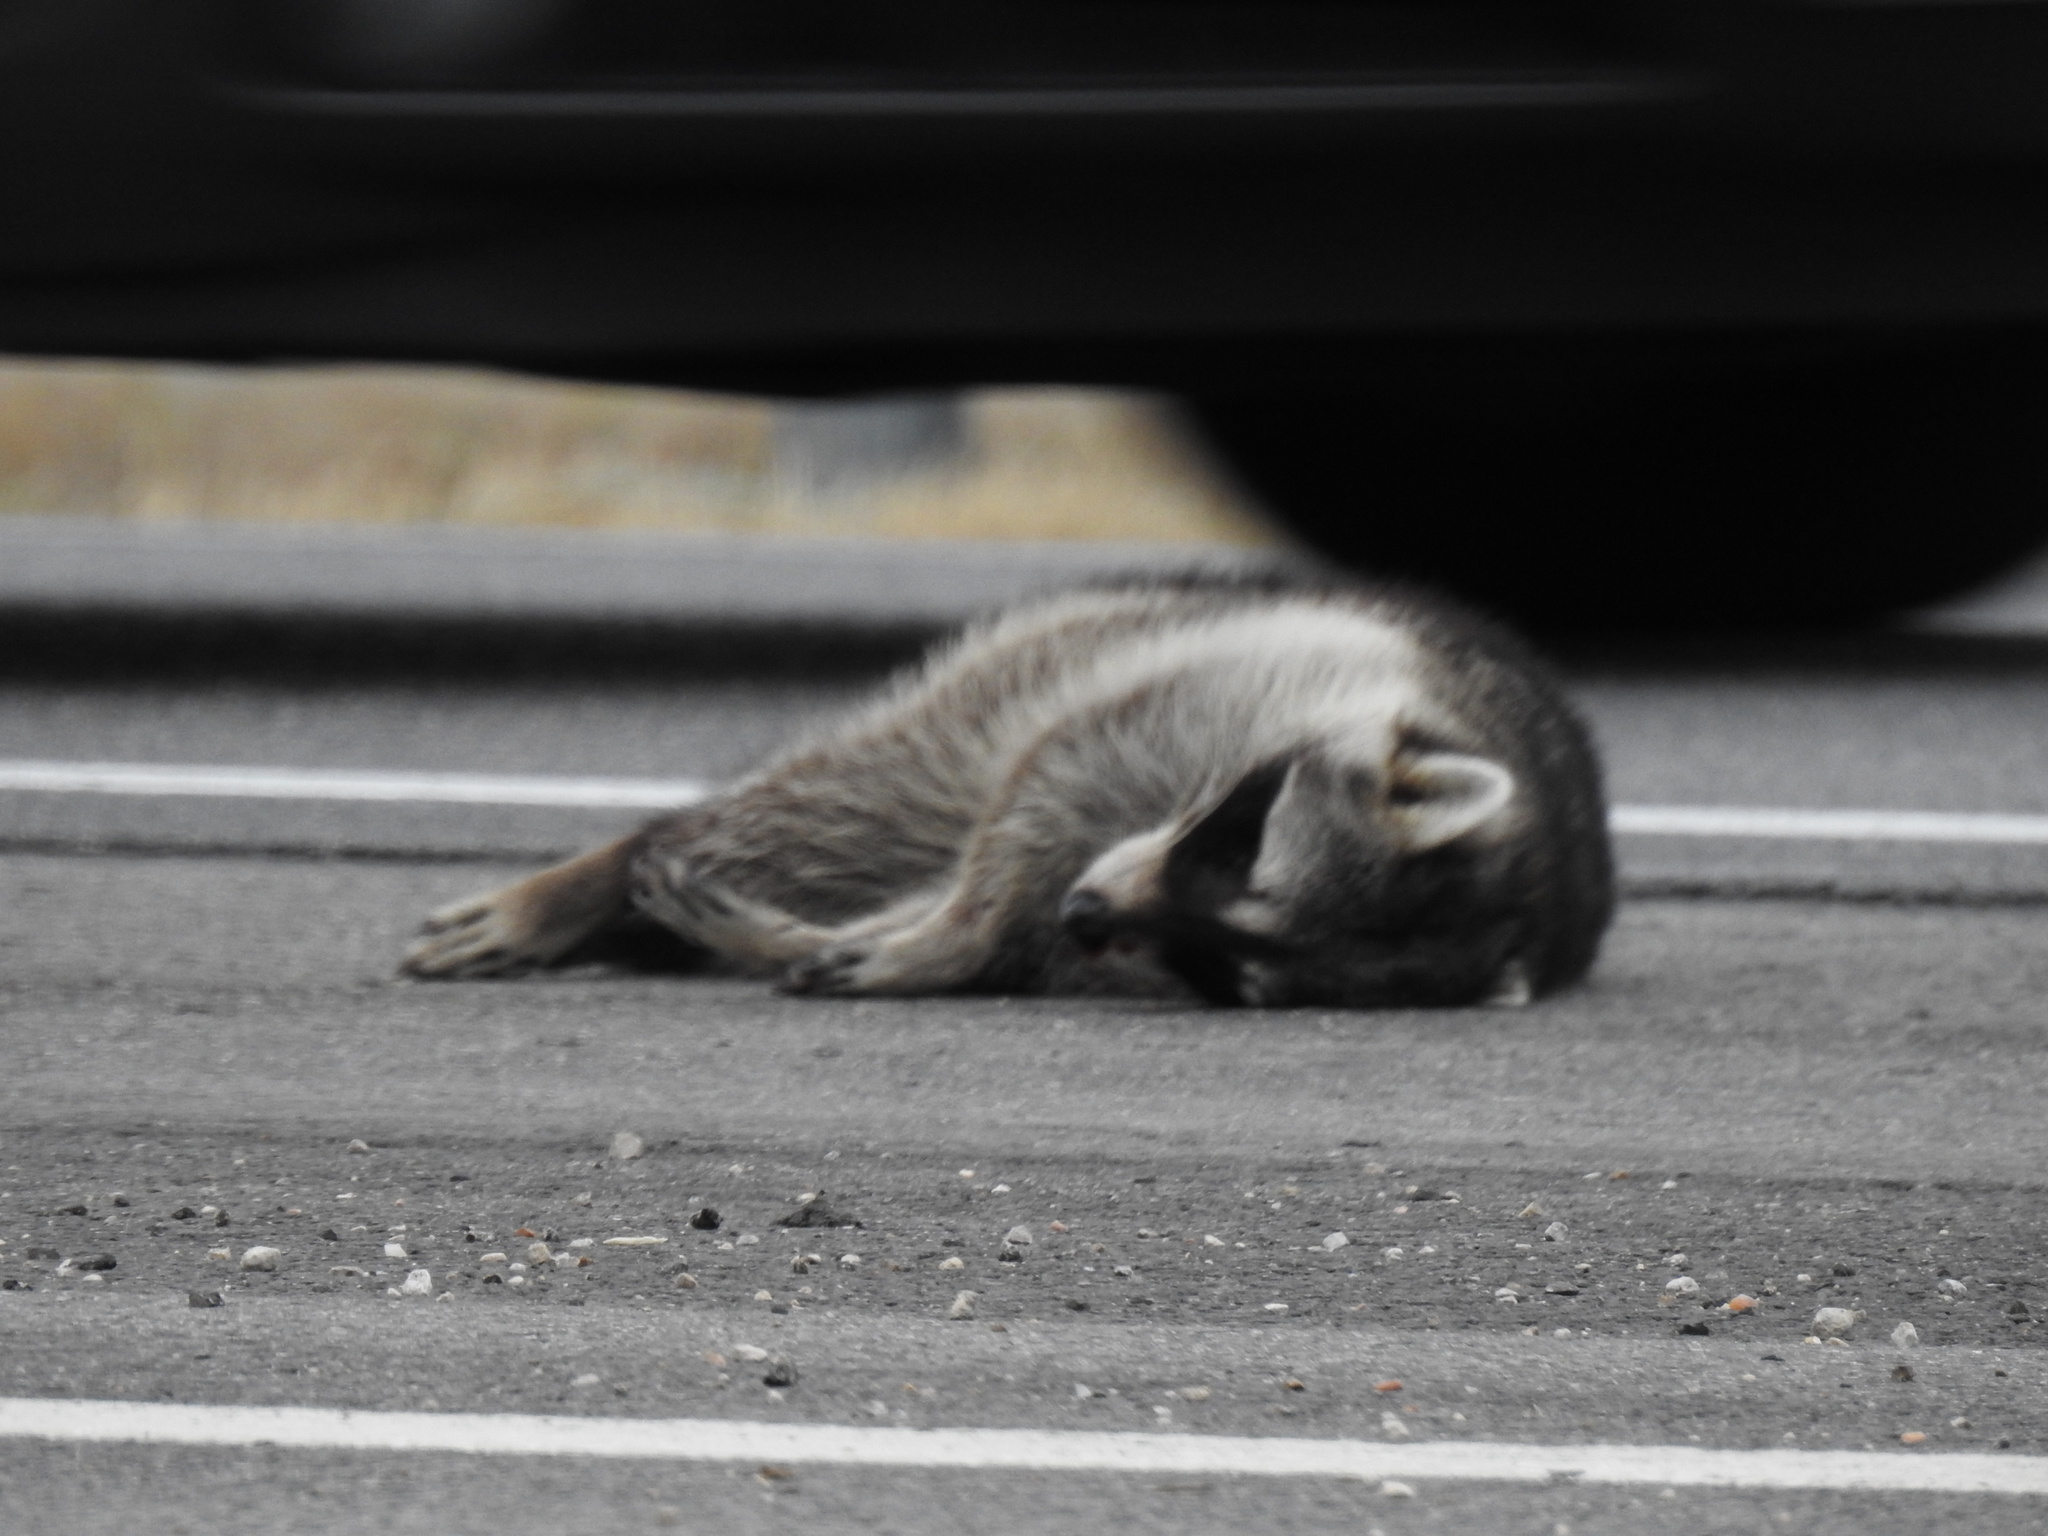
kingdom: Animalia
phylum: Chordata
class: Mammalia
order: Carnivora
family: Procyonidae
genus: Procyon
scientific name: Procyon lotor
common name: Raccoon
